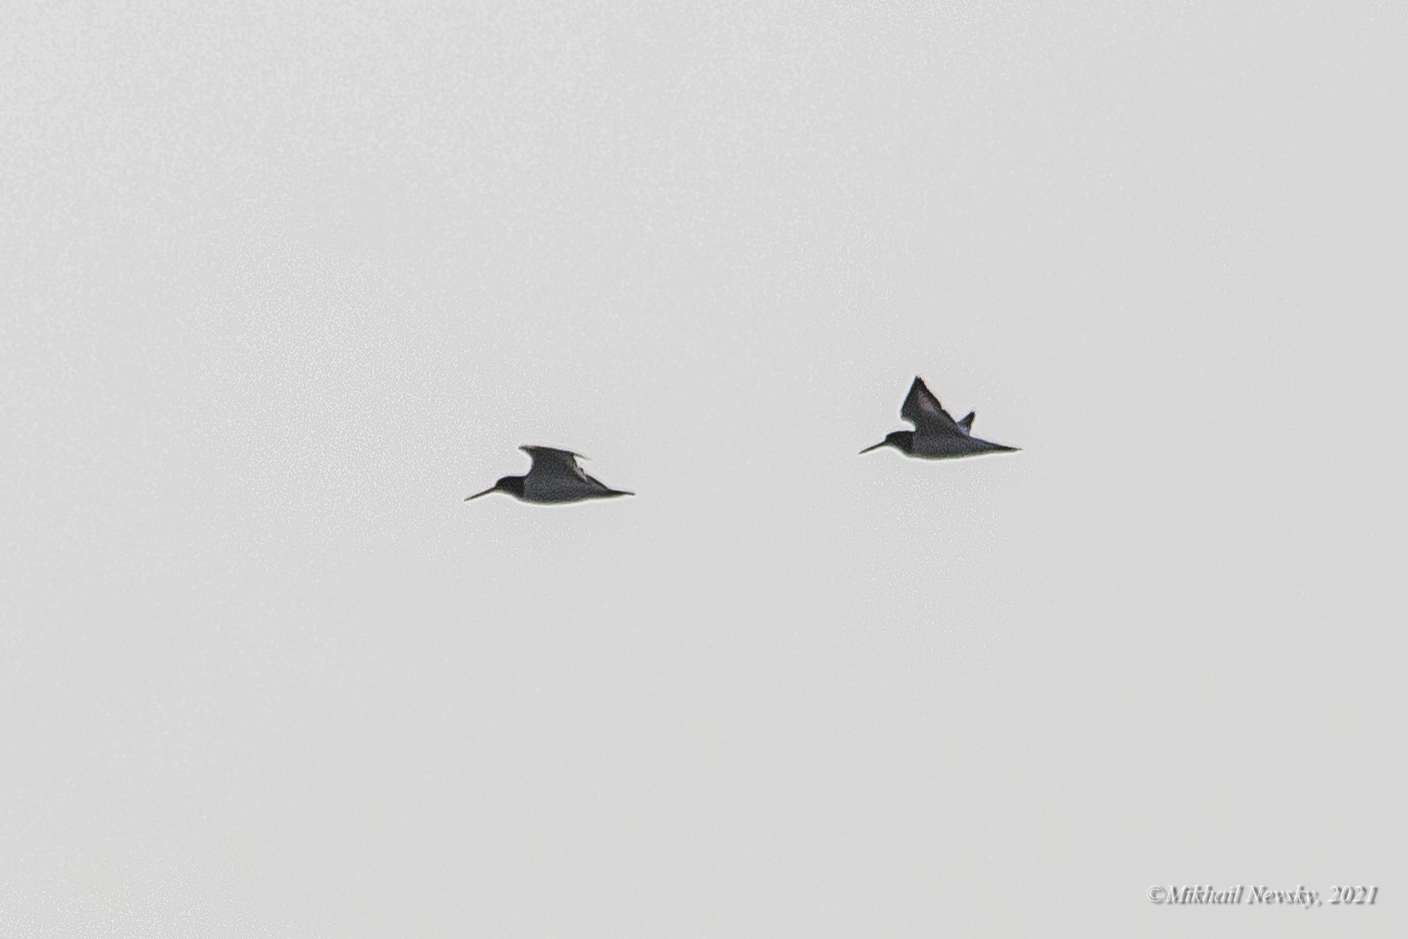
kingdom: Animalia
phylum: Chordata
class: Aves
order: Charadriiformes
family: Haematopodidae
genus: Haematopus
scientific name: Haematopus ostralegus
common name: Eurasian oystercatcher
